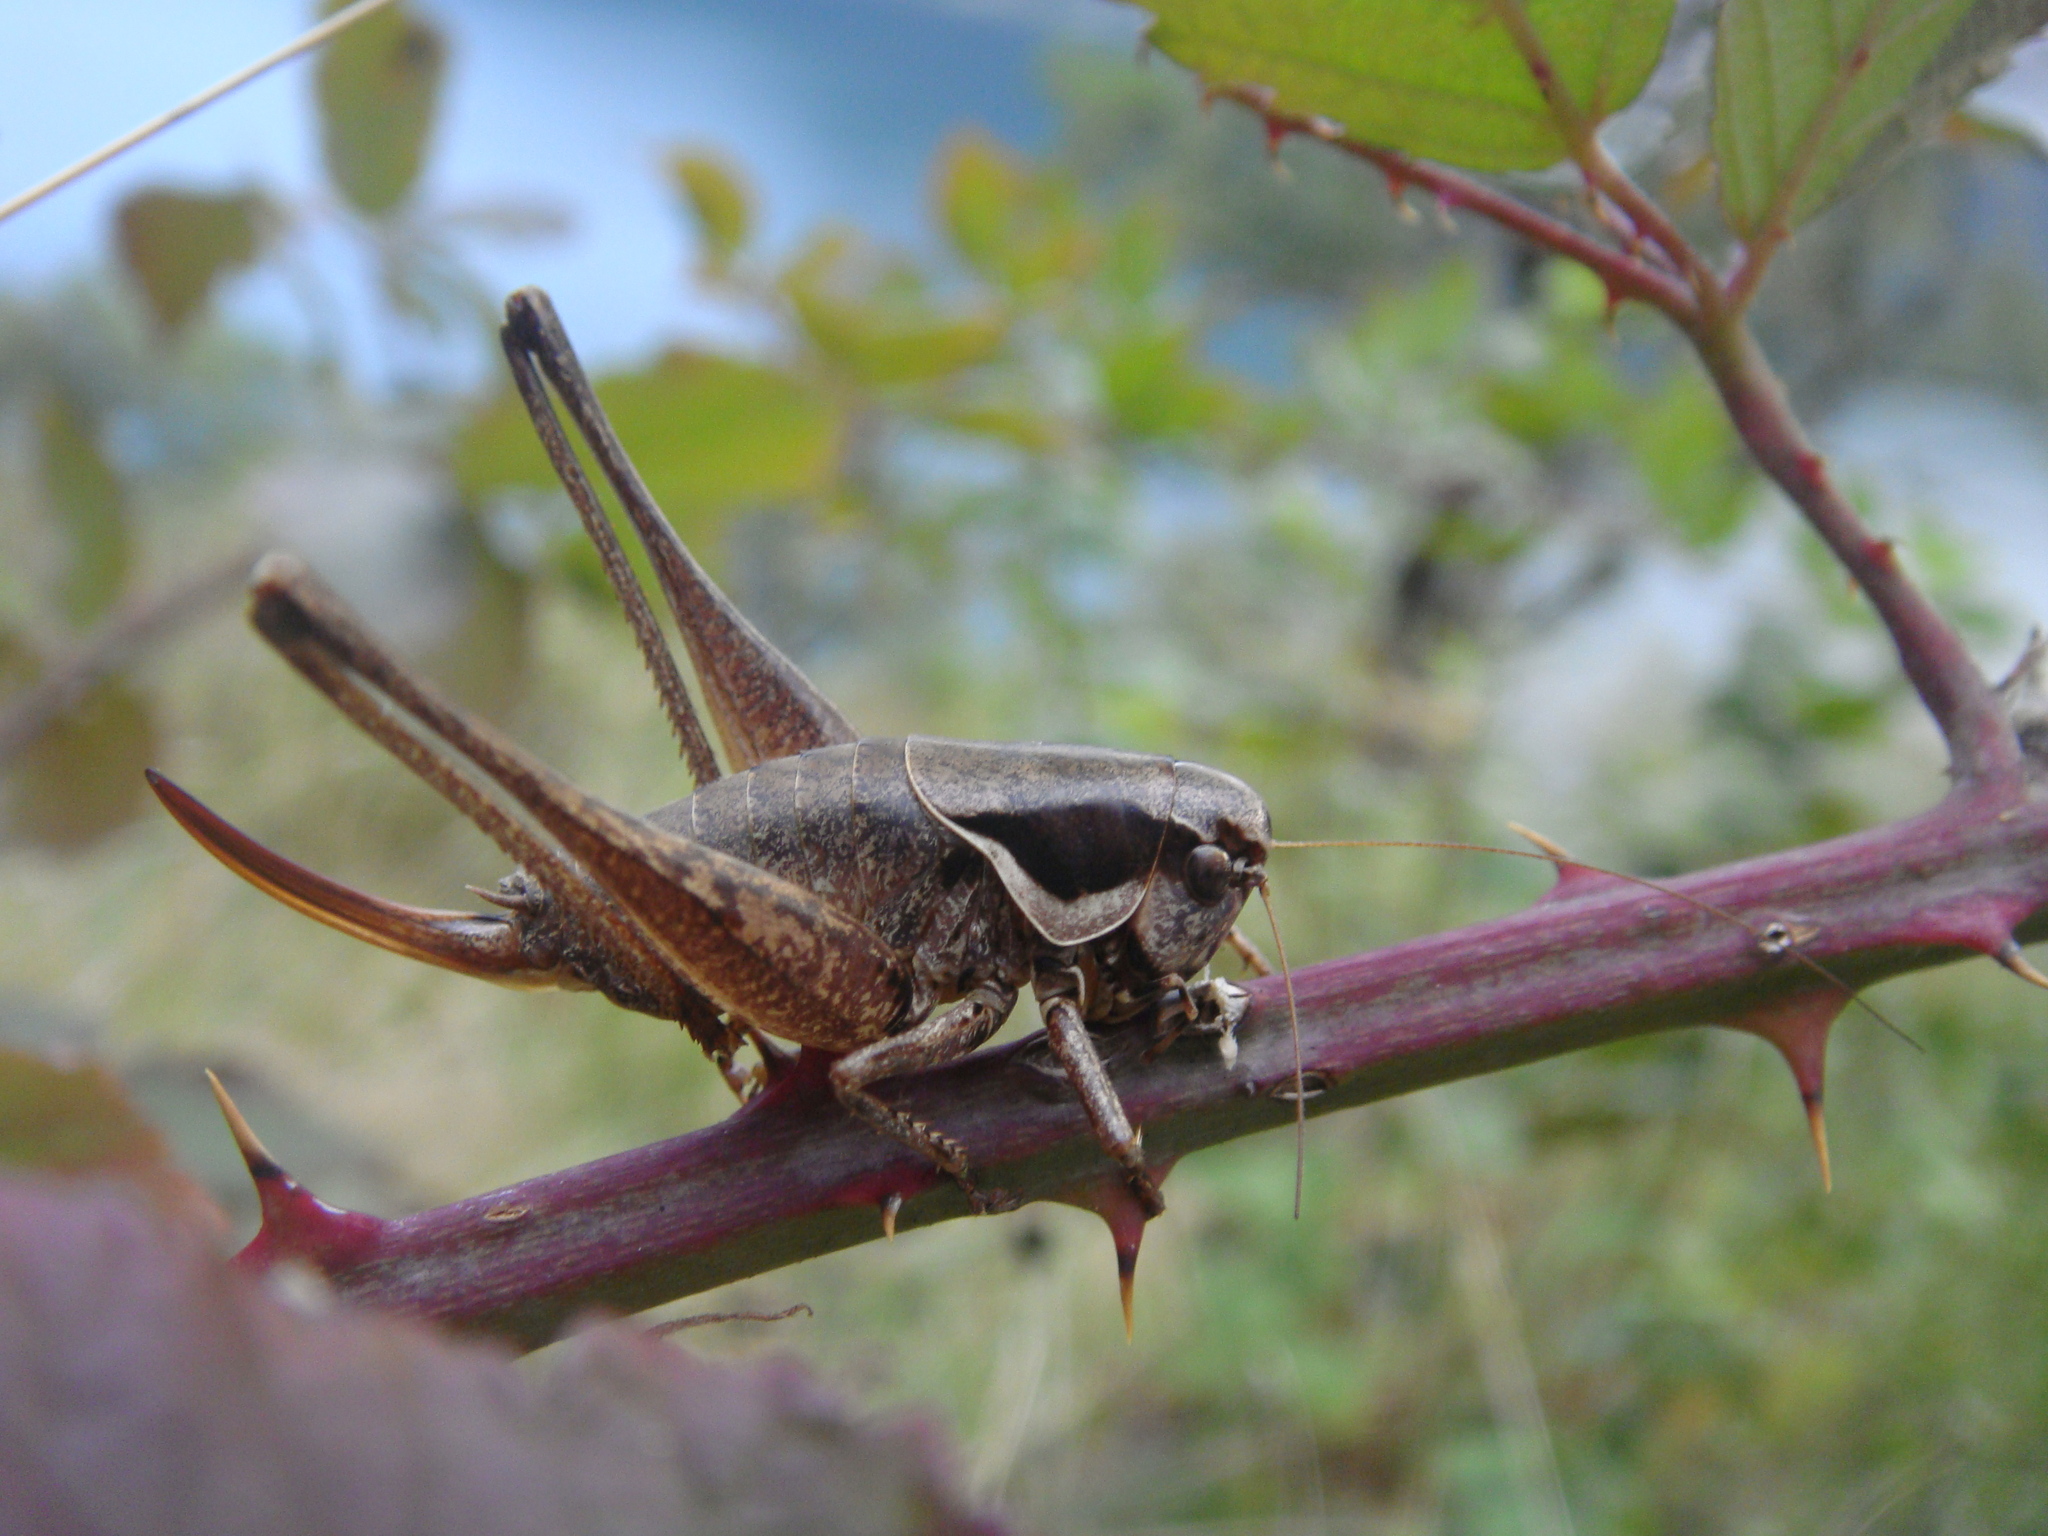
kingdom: Animalia
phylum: Arthropoda
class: Insecta
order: Orthoptera
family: Tettigoniidae
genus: Pholidoptera
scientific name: Pholidoptera fallax
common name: Fischer's bush-cricket
